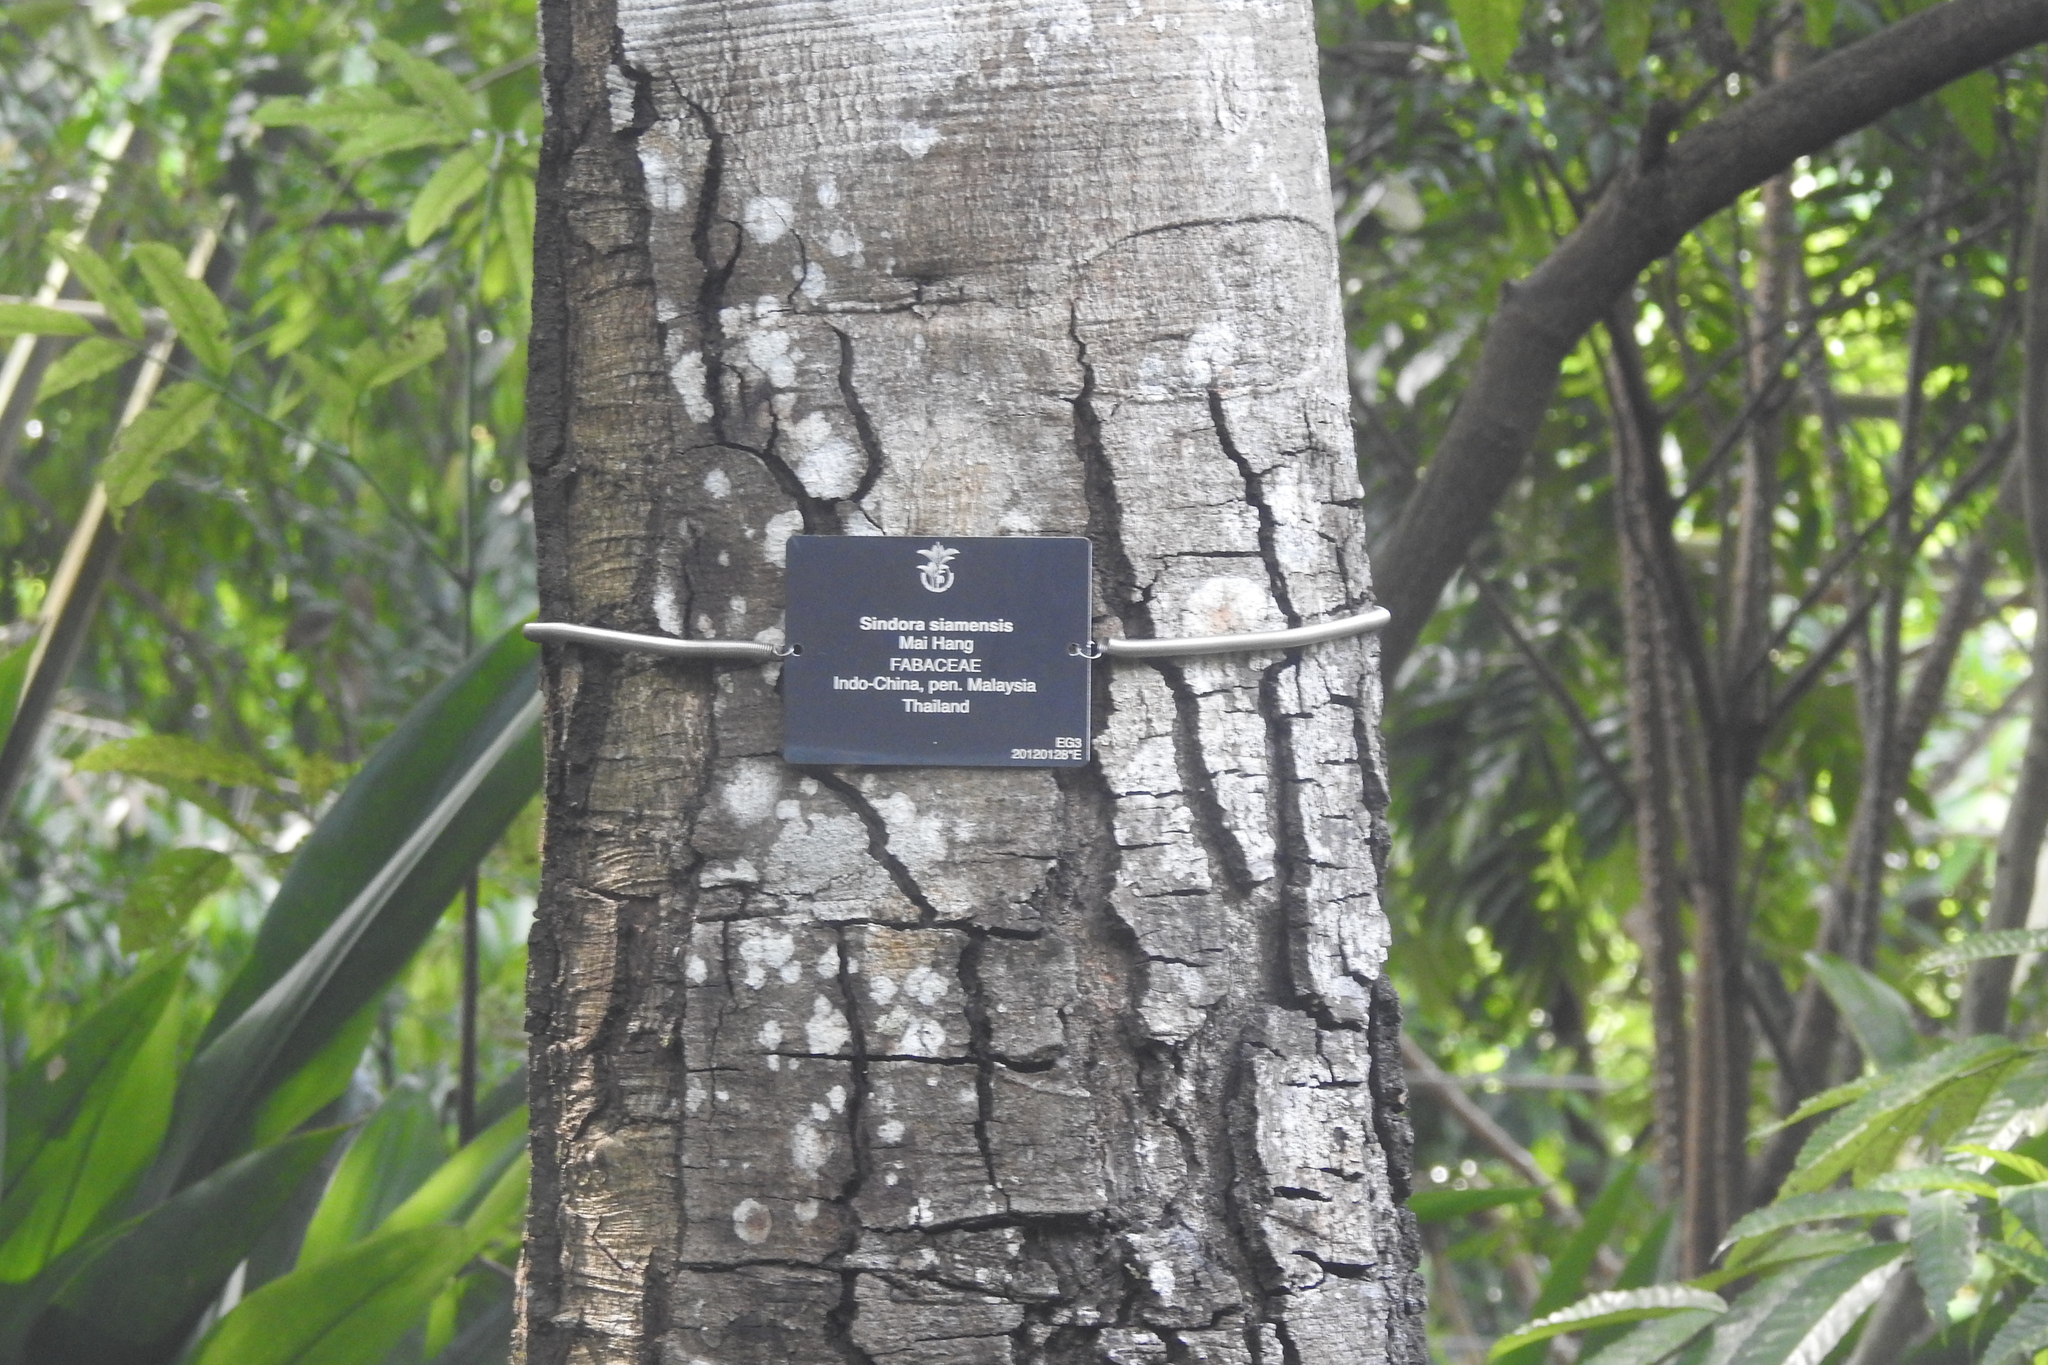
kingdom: Plantae
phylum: Tracheophyta
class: Magnoliopsida
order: Fabales
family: Fabaceae
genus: Sindora
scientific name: Sindora siamensis
